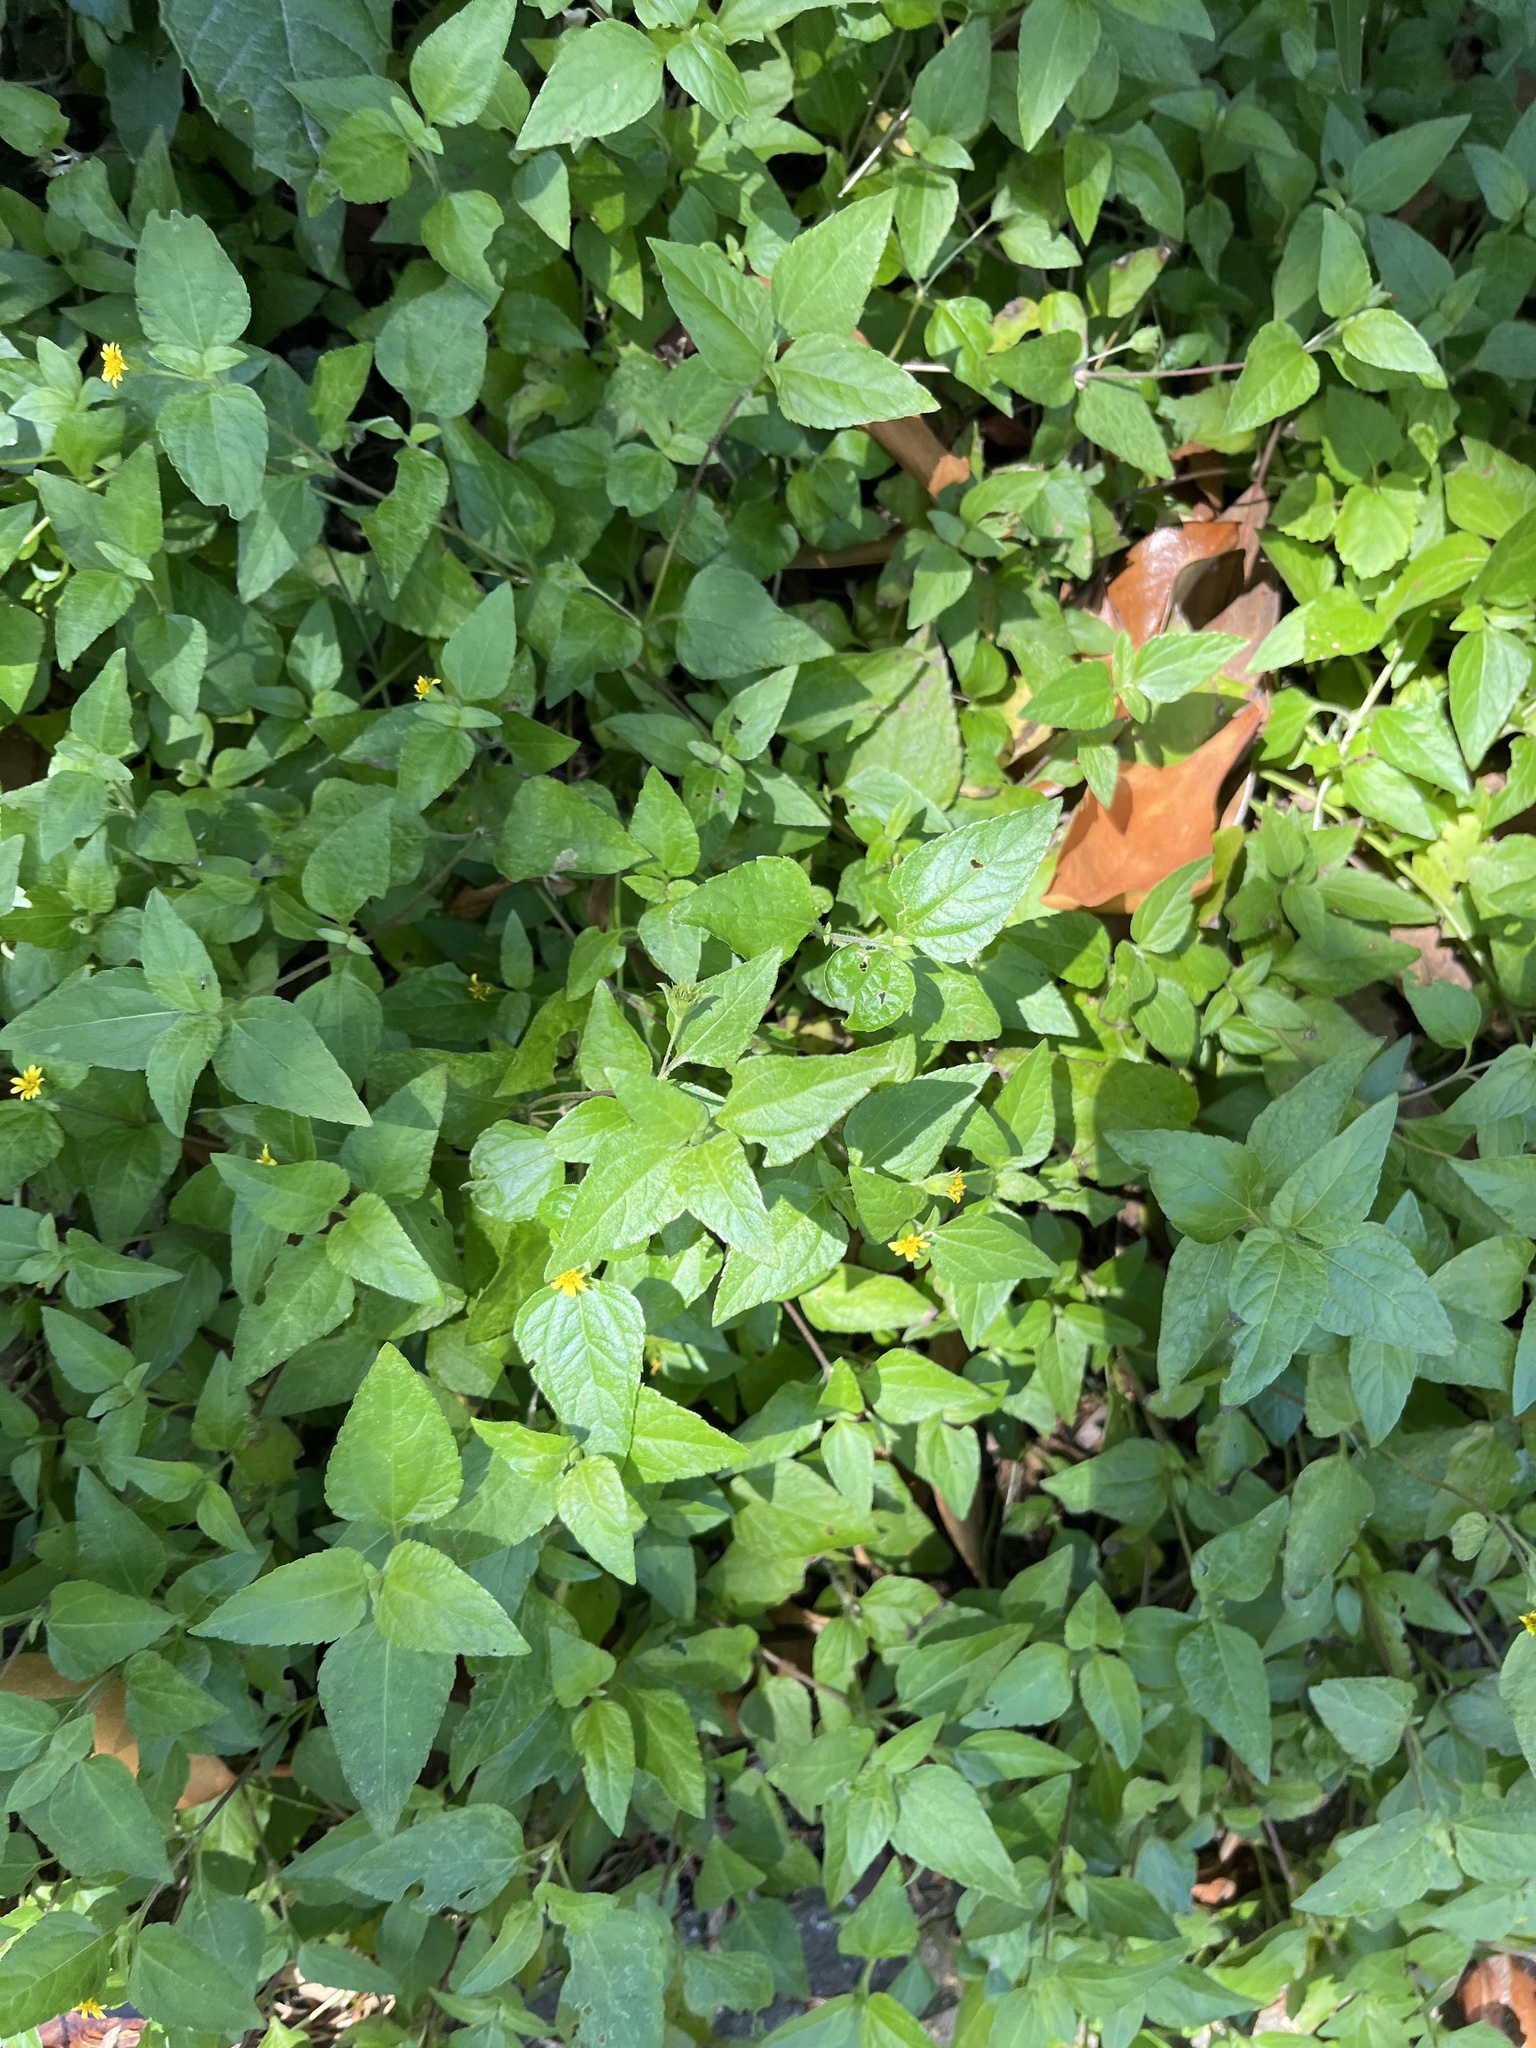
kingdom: Plantae
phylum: Tracheophyta
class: Magnoliopsida
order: Asterales
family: Asteraceae
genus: Calyptocarpus
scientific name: Calyptocarpus vialis
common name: Straggler daisy
